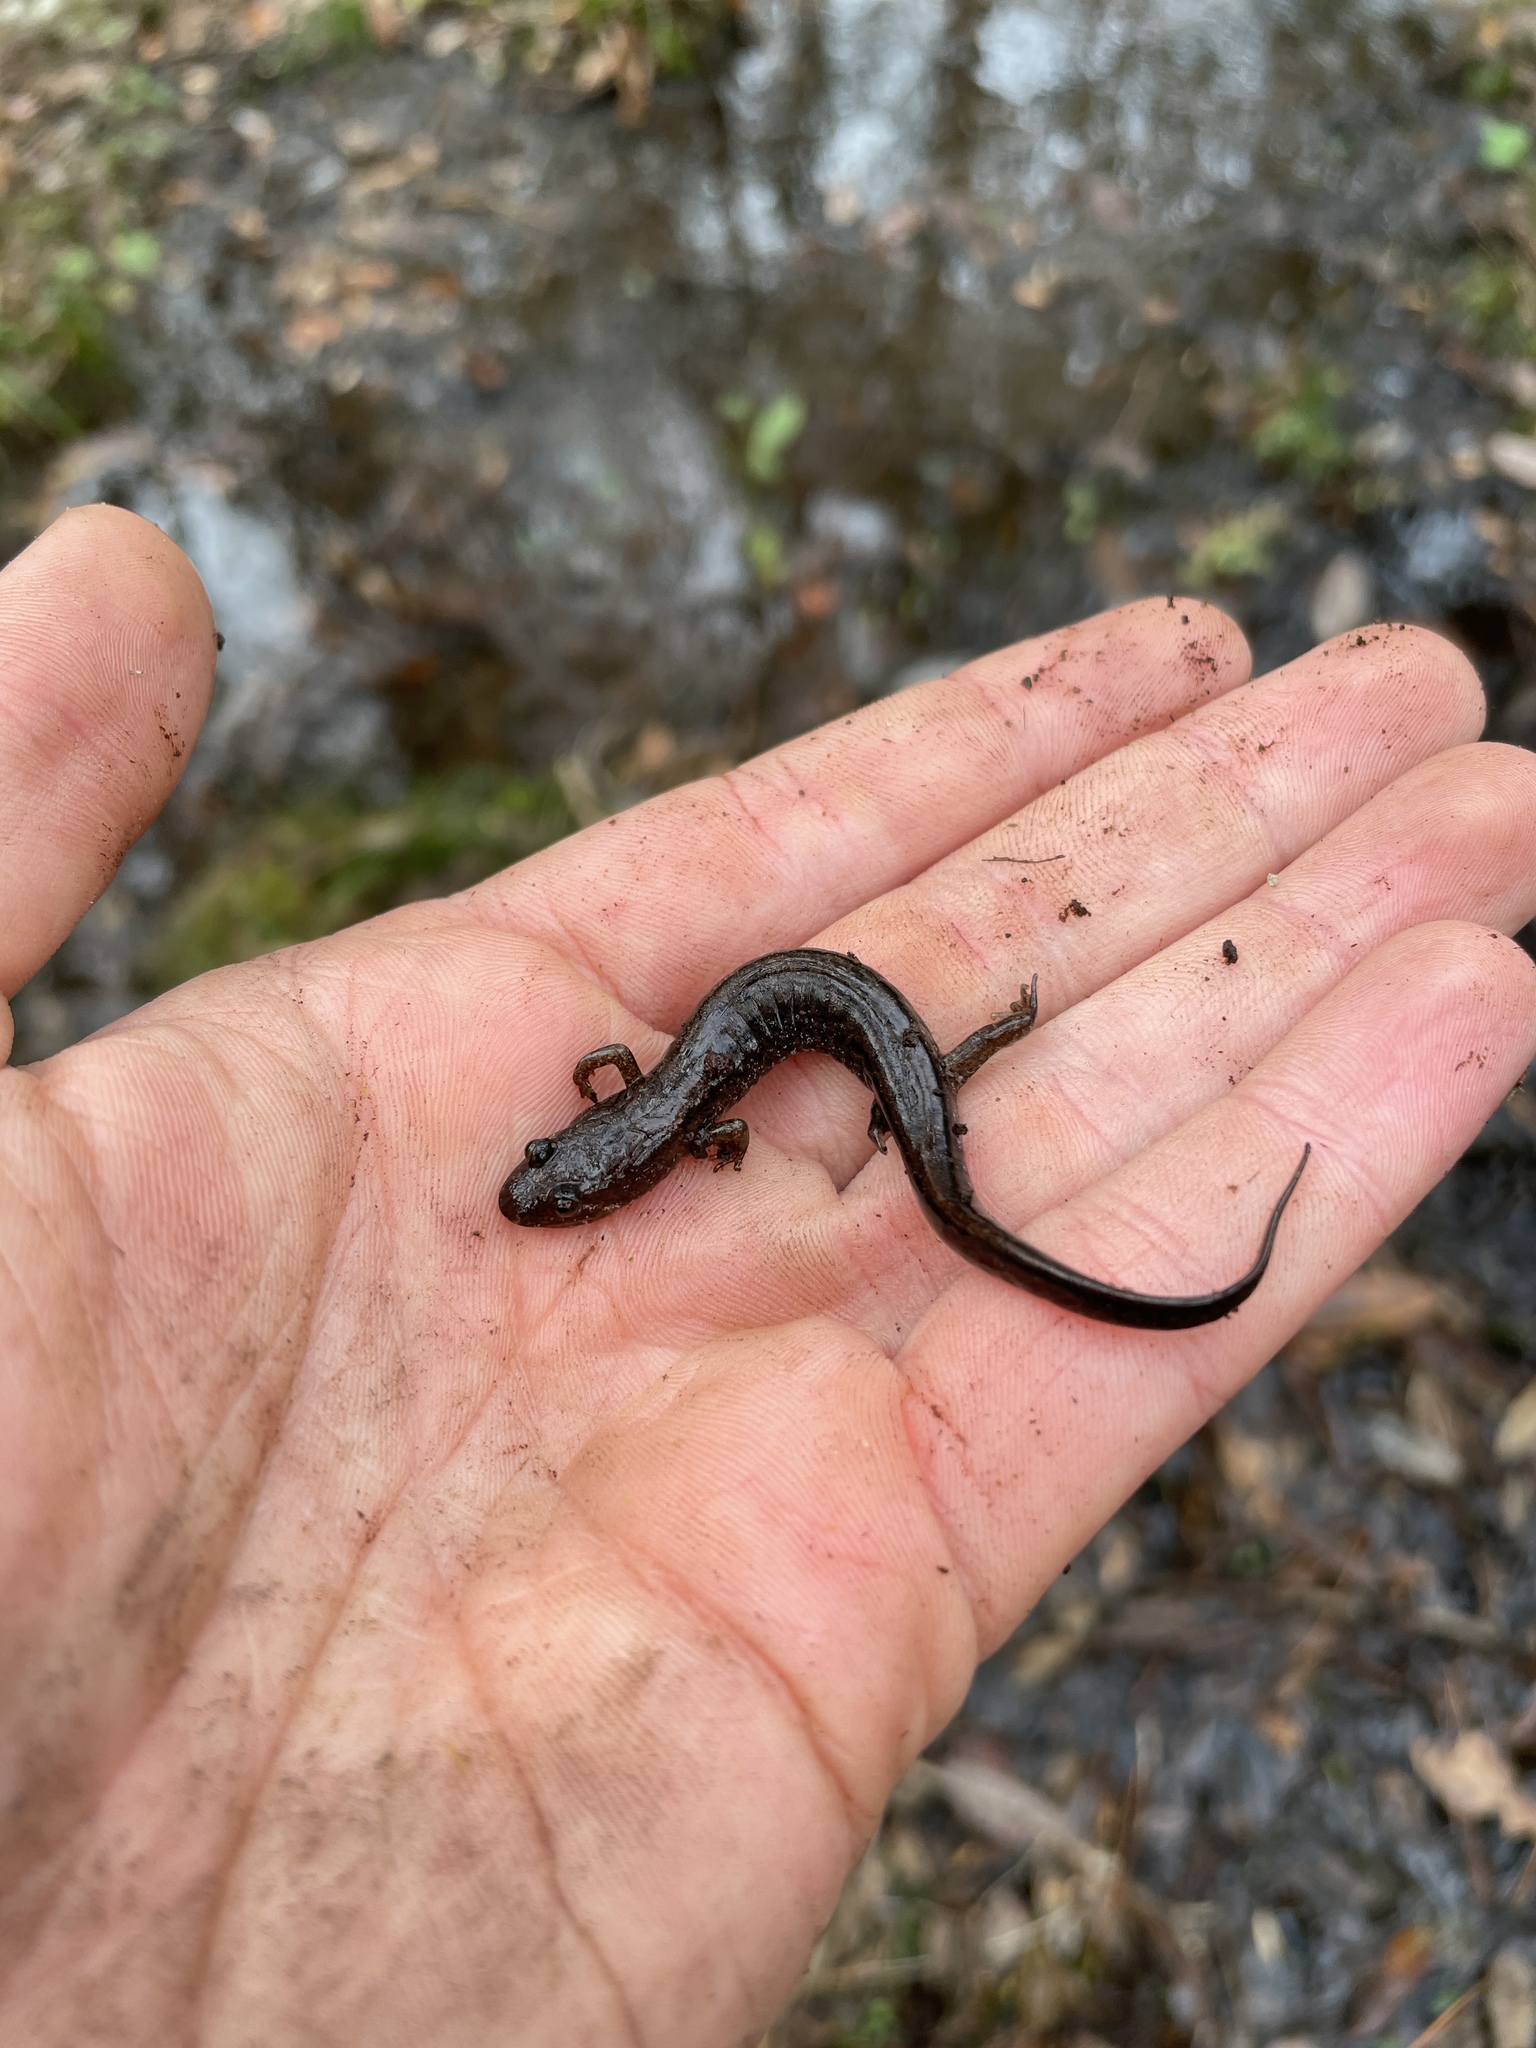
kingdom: Animalia
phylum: Chordata
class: Amphibia
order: Caudata
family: Plethodontidae
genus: Desmognathus
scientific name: Desmognathus conanti
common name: Spotted dusky salamander
